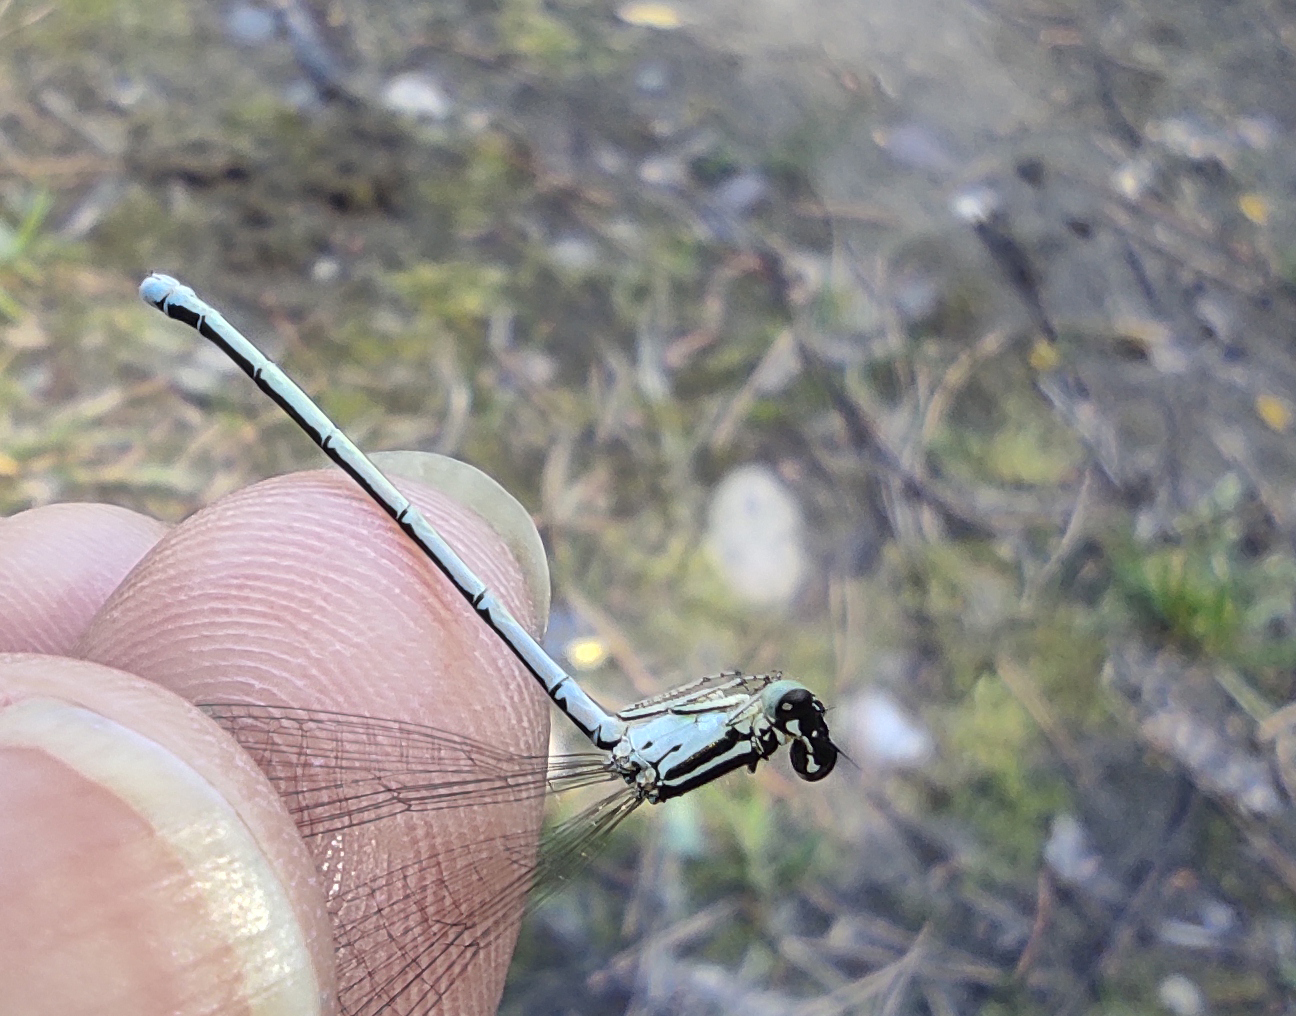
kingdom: Animalia
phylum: Arthropoda
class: Insecta
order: Odonata
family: Coenagrionidae
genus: Coenagrion
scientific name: Coenagrion ecornutum
